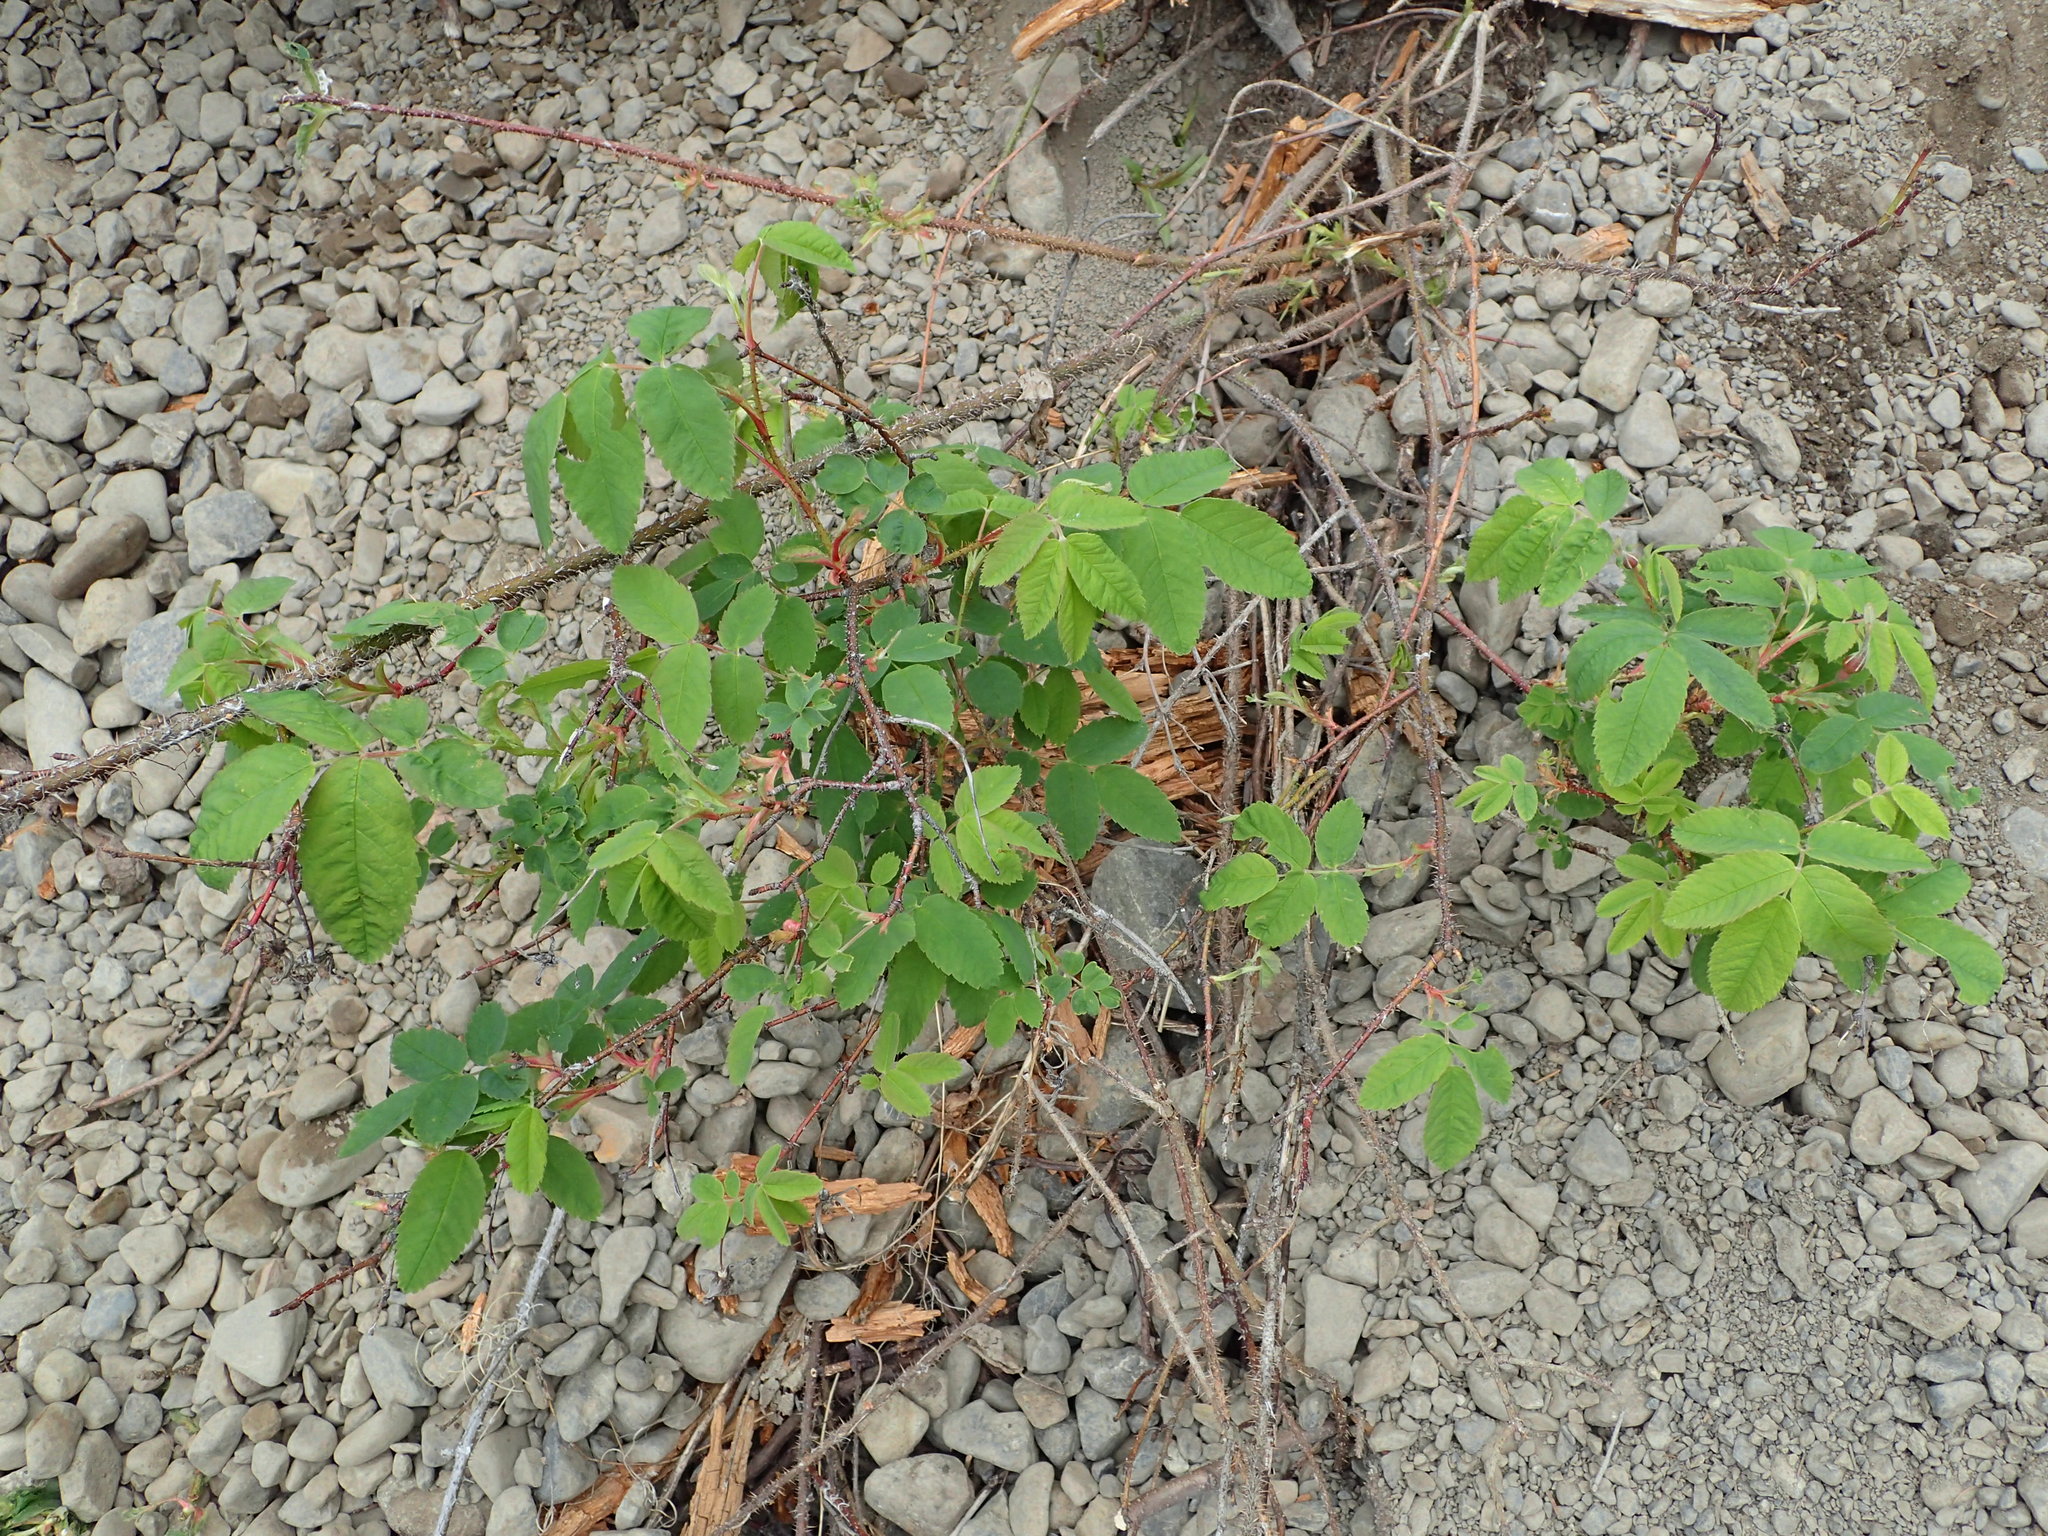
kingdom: Plantae
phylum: Tracheophyta
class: Magnoliopsida
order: Rosales
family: Rosaceae
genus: Rosa
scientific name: Rosa acicularis
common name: Prickly rose
